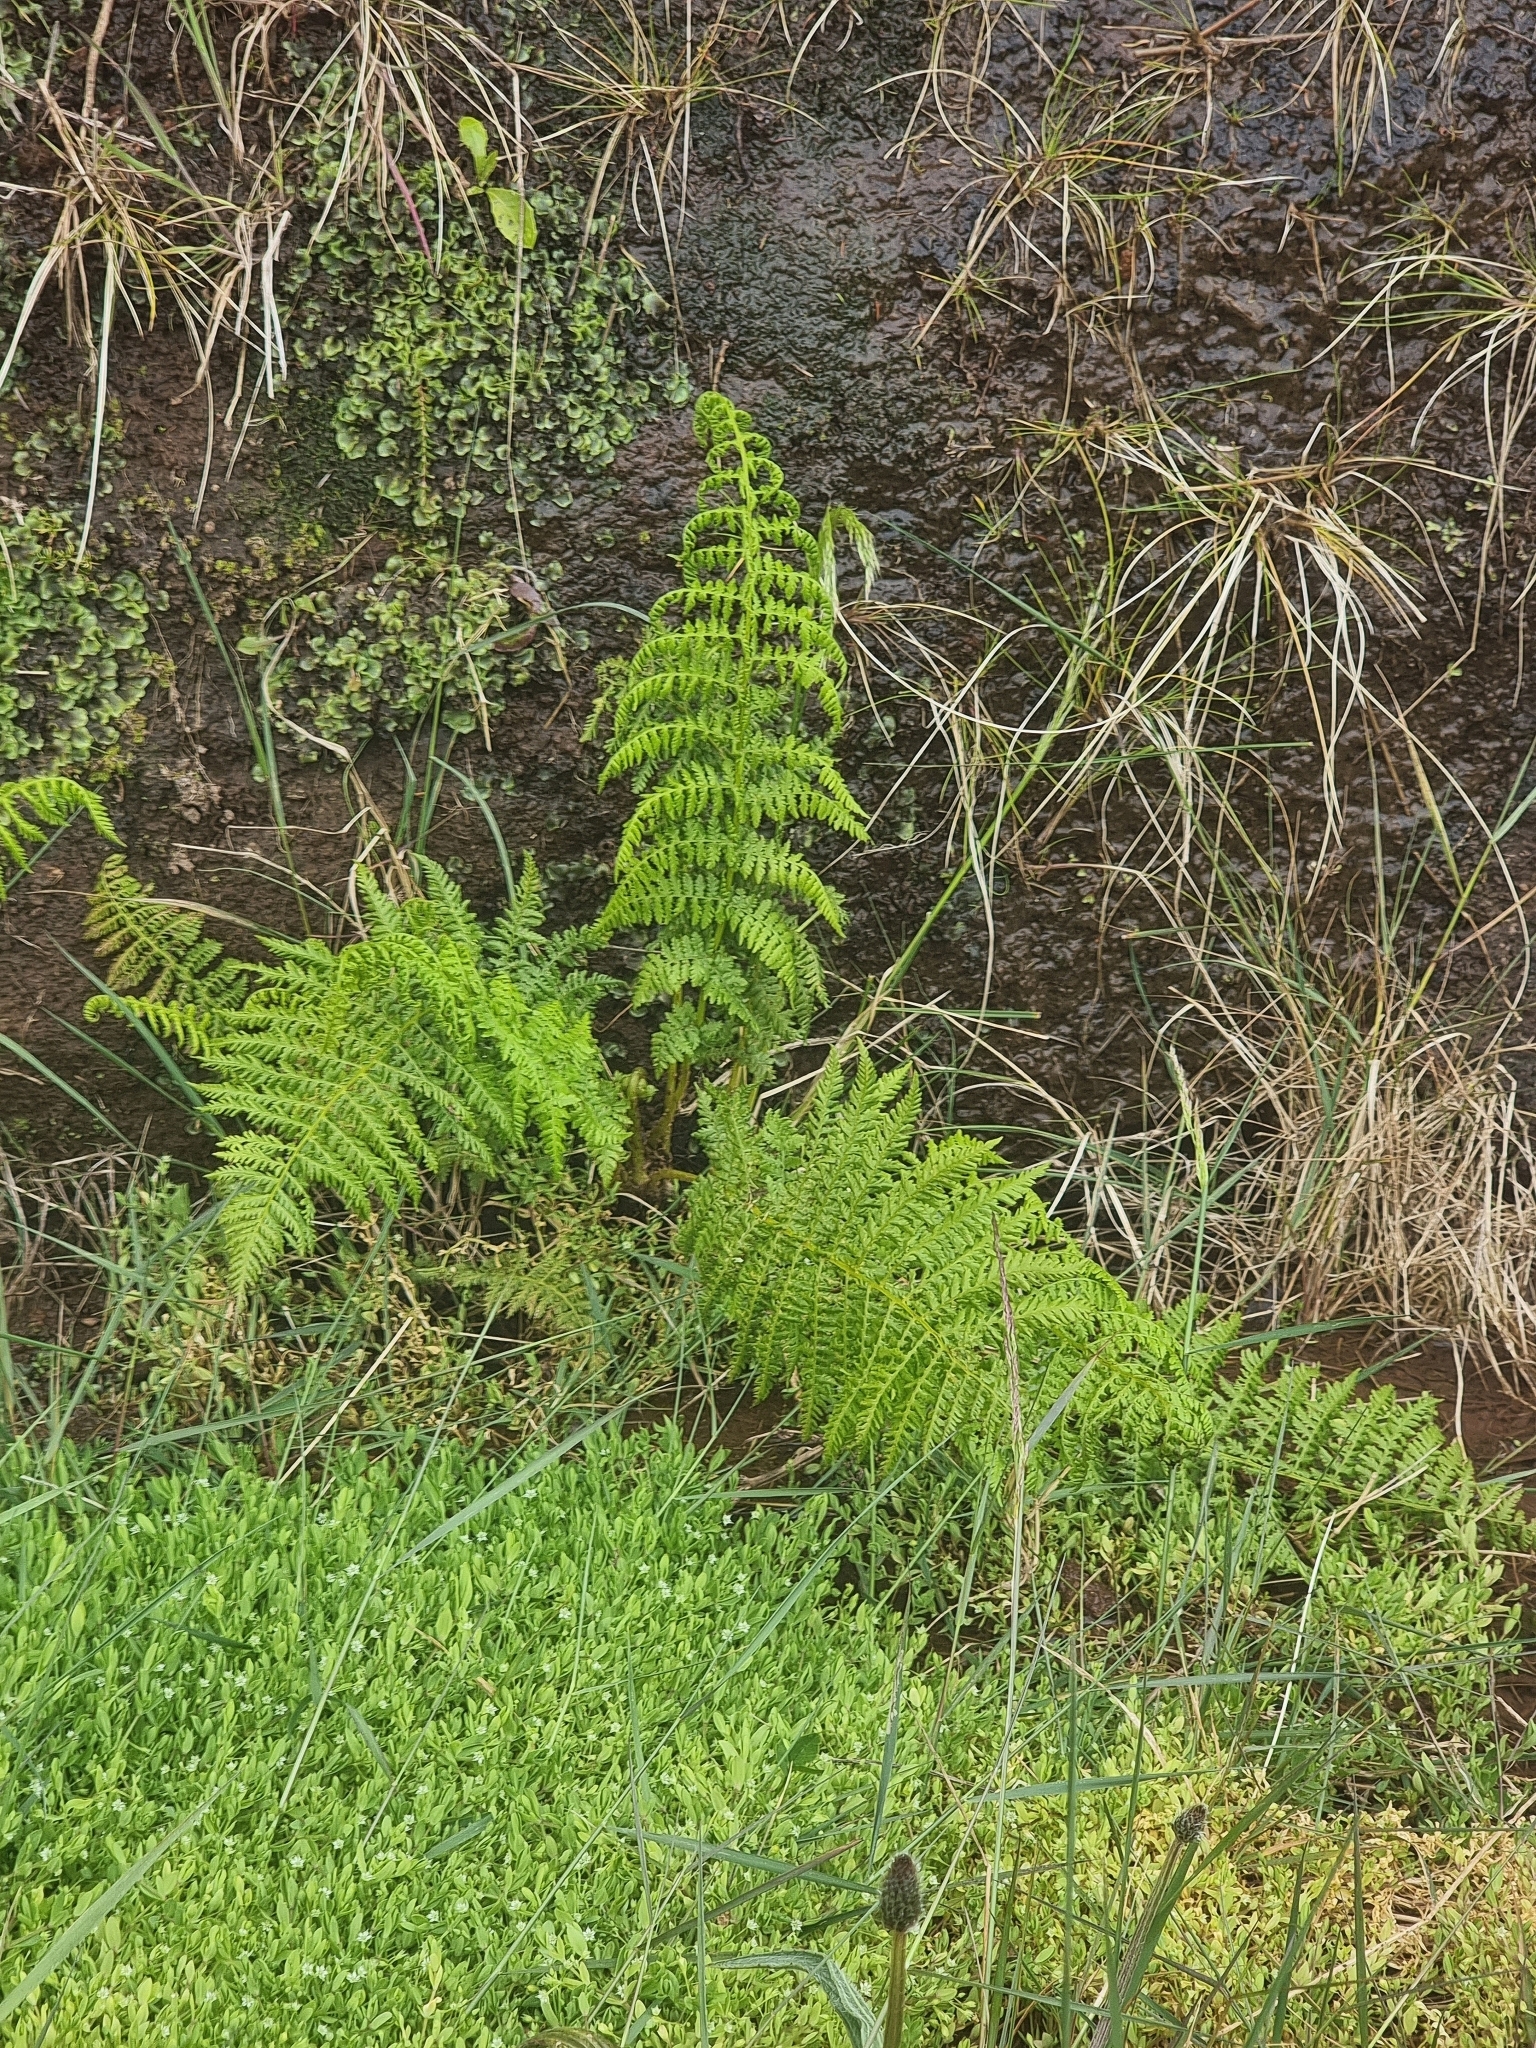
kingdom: Plantae
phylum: Tracheophyta
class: Polypodiopsida
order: Polypodiales
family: Athyriaceae
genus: Athyrium
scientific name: Athyrium filix-femina
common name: Lady fern
